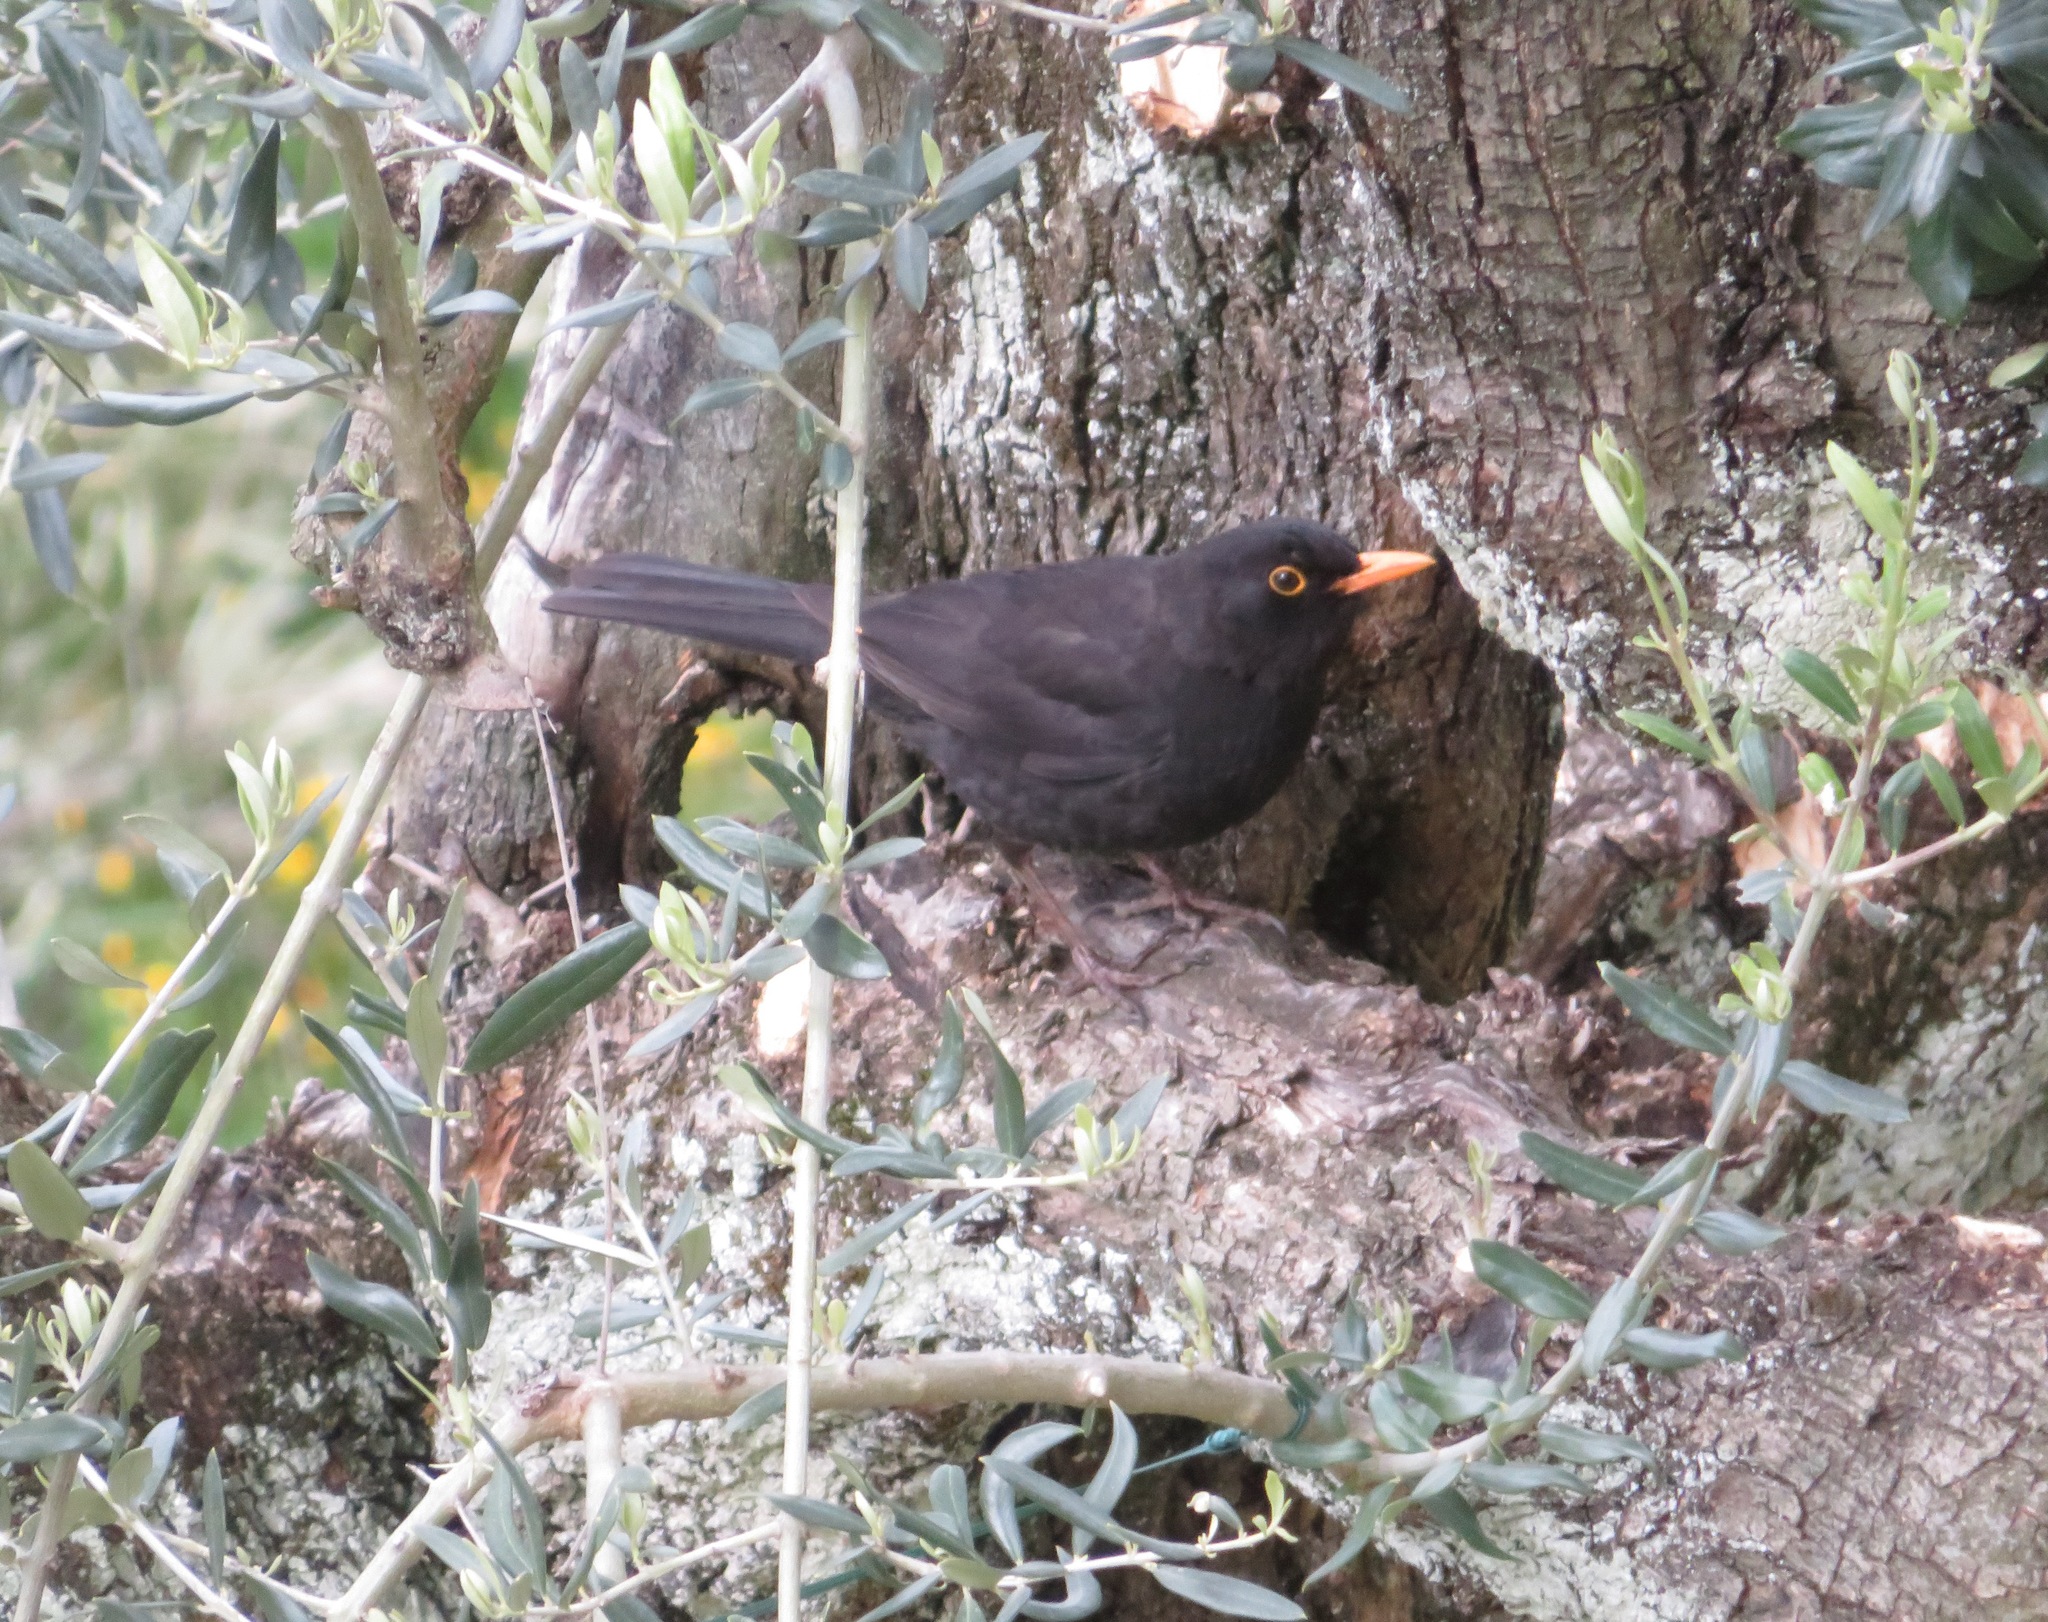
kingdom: Animalia
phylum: Chordata
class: Aves
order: Passeriformes
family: Turdidae
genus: Turdus
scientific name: Turdus merula
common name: Common blackbird
